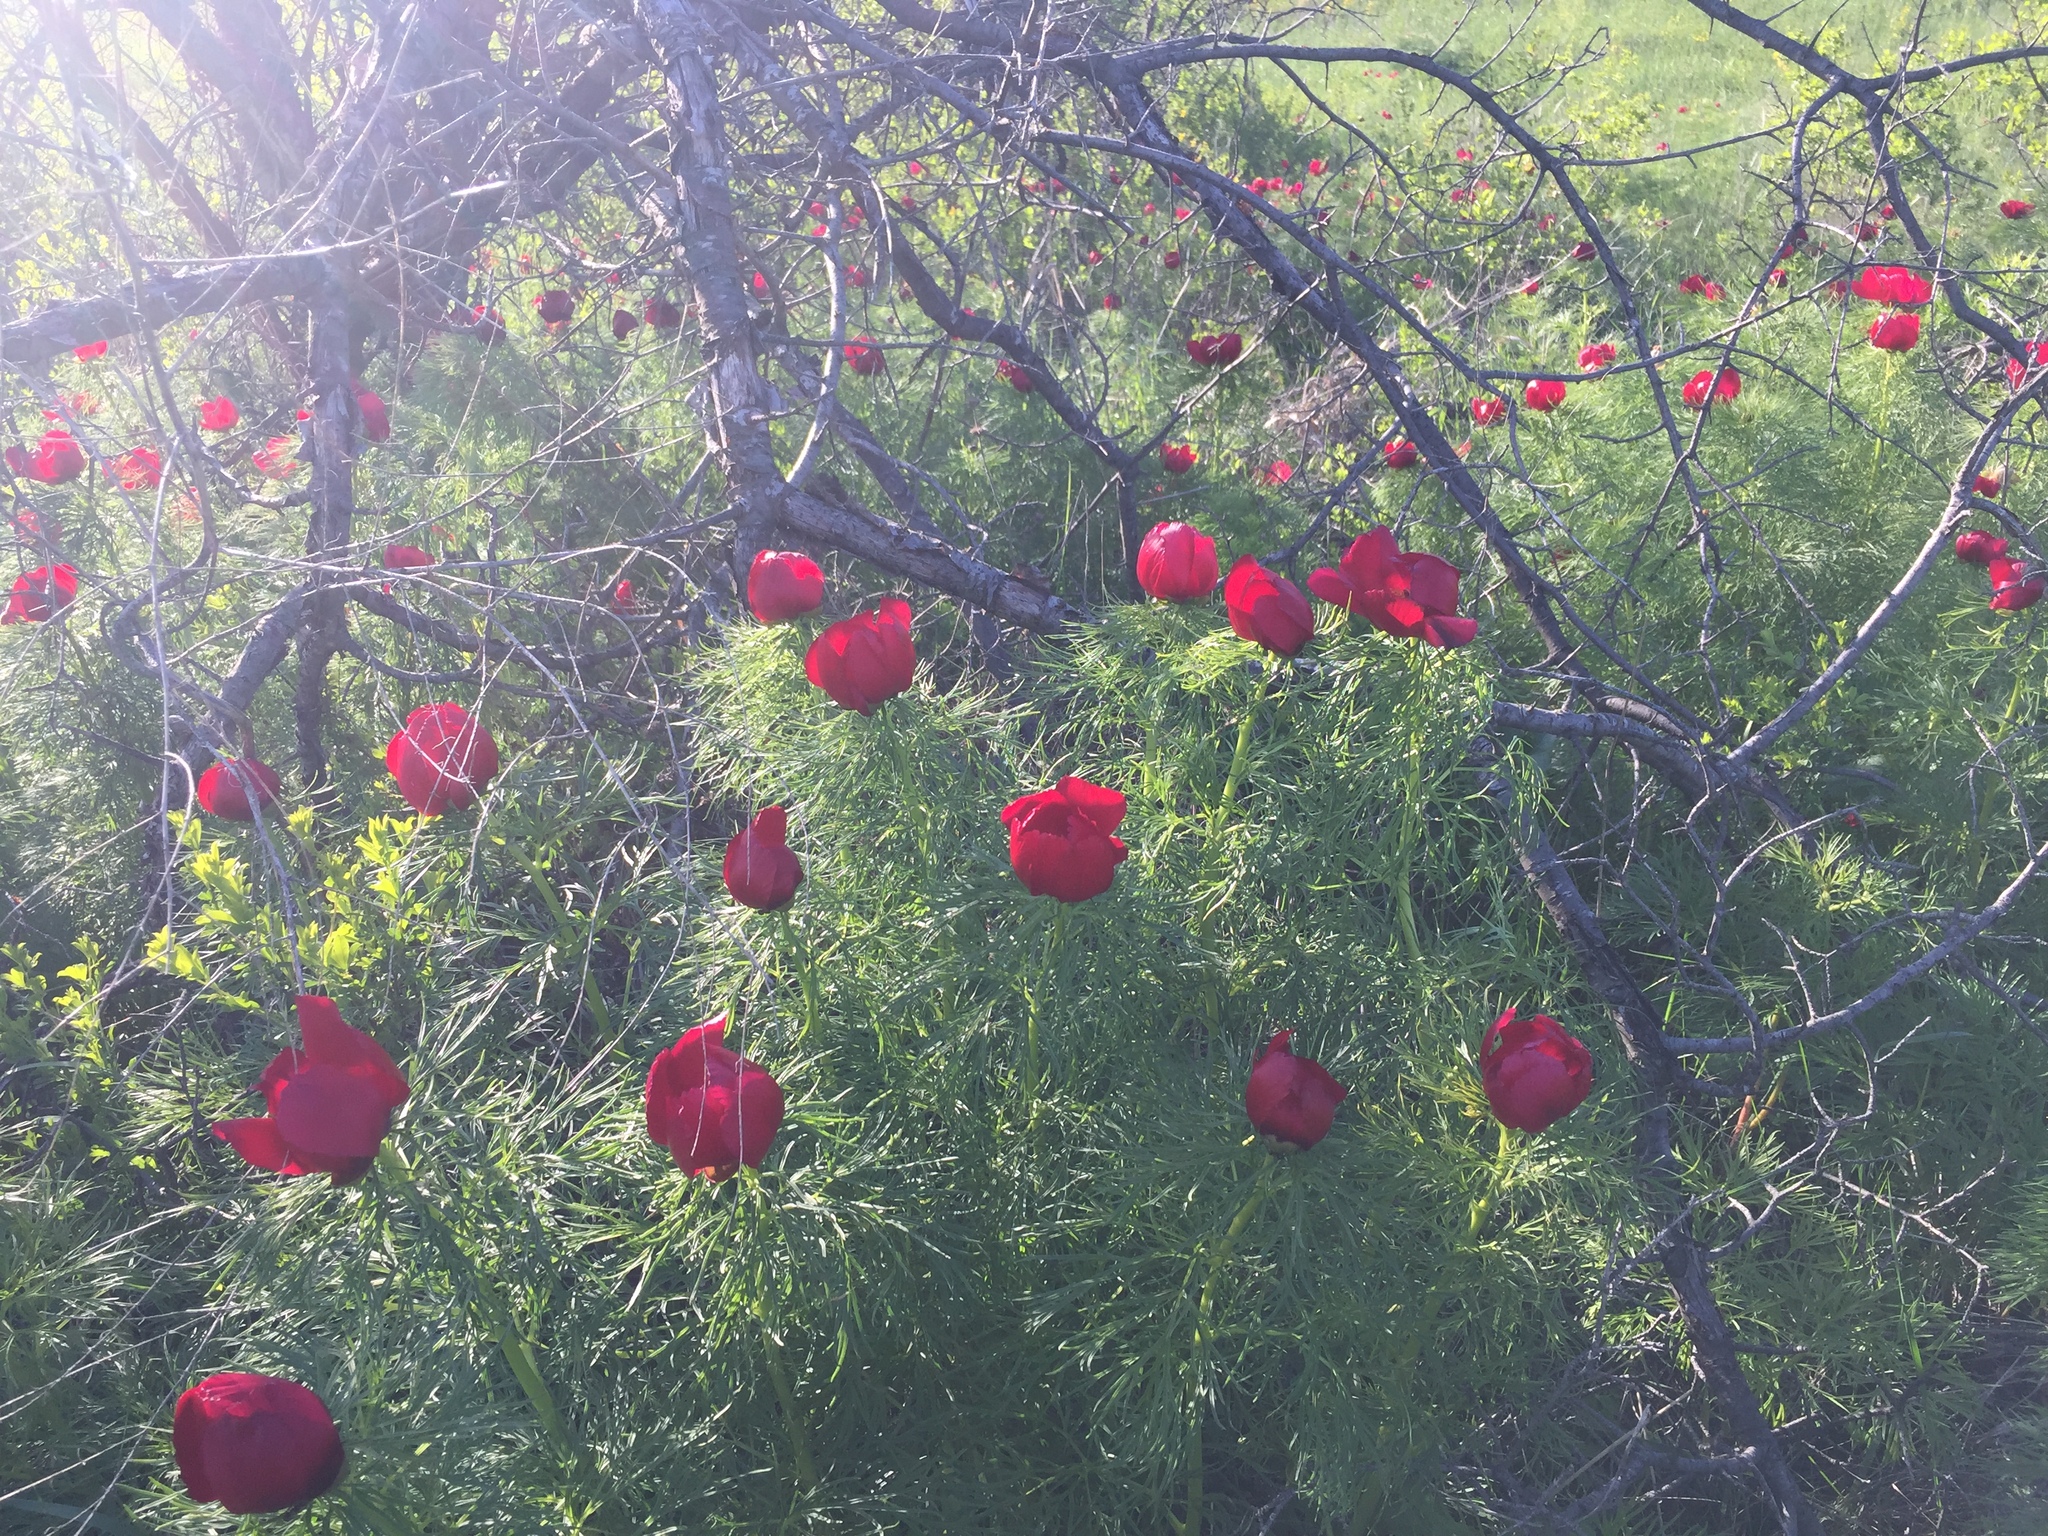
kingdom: Plantae
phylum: Tracheophyta
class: Magnoliopsida
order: Saxifragales
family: Paeoniaceae
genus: Paeonia
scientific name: Paeonia tenuifolia
